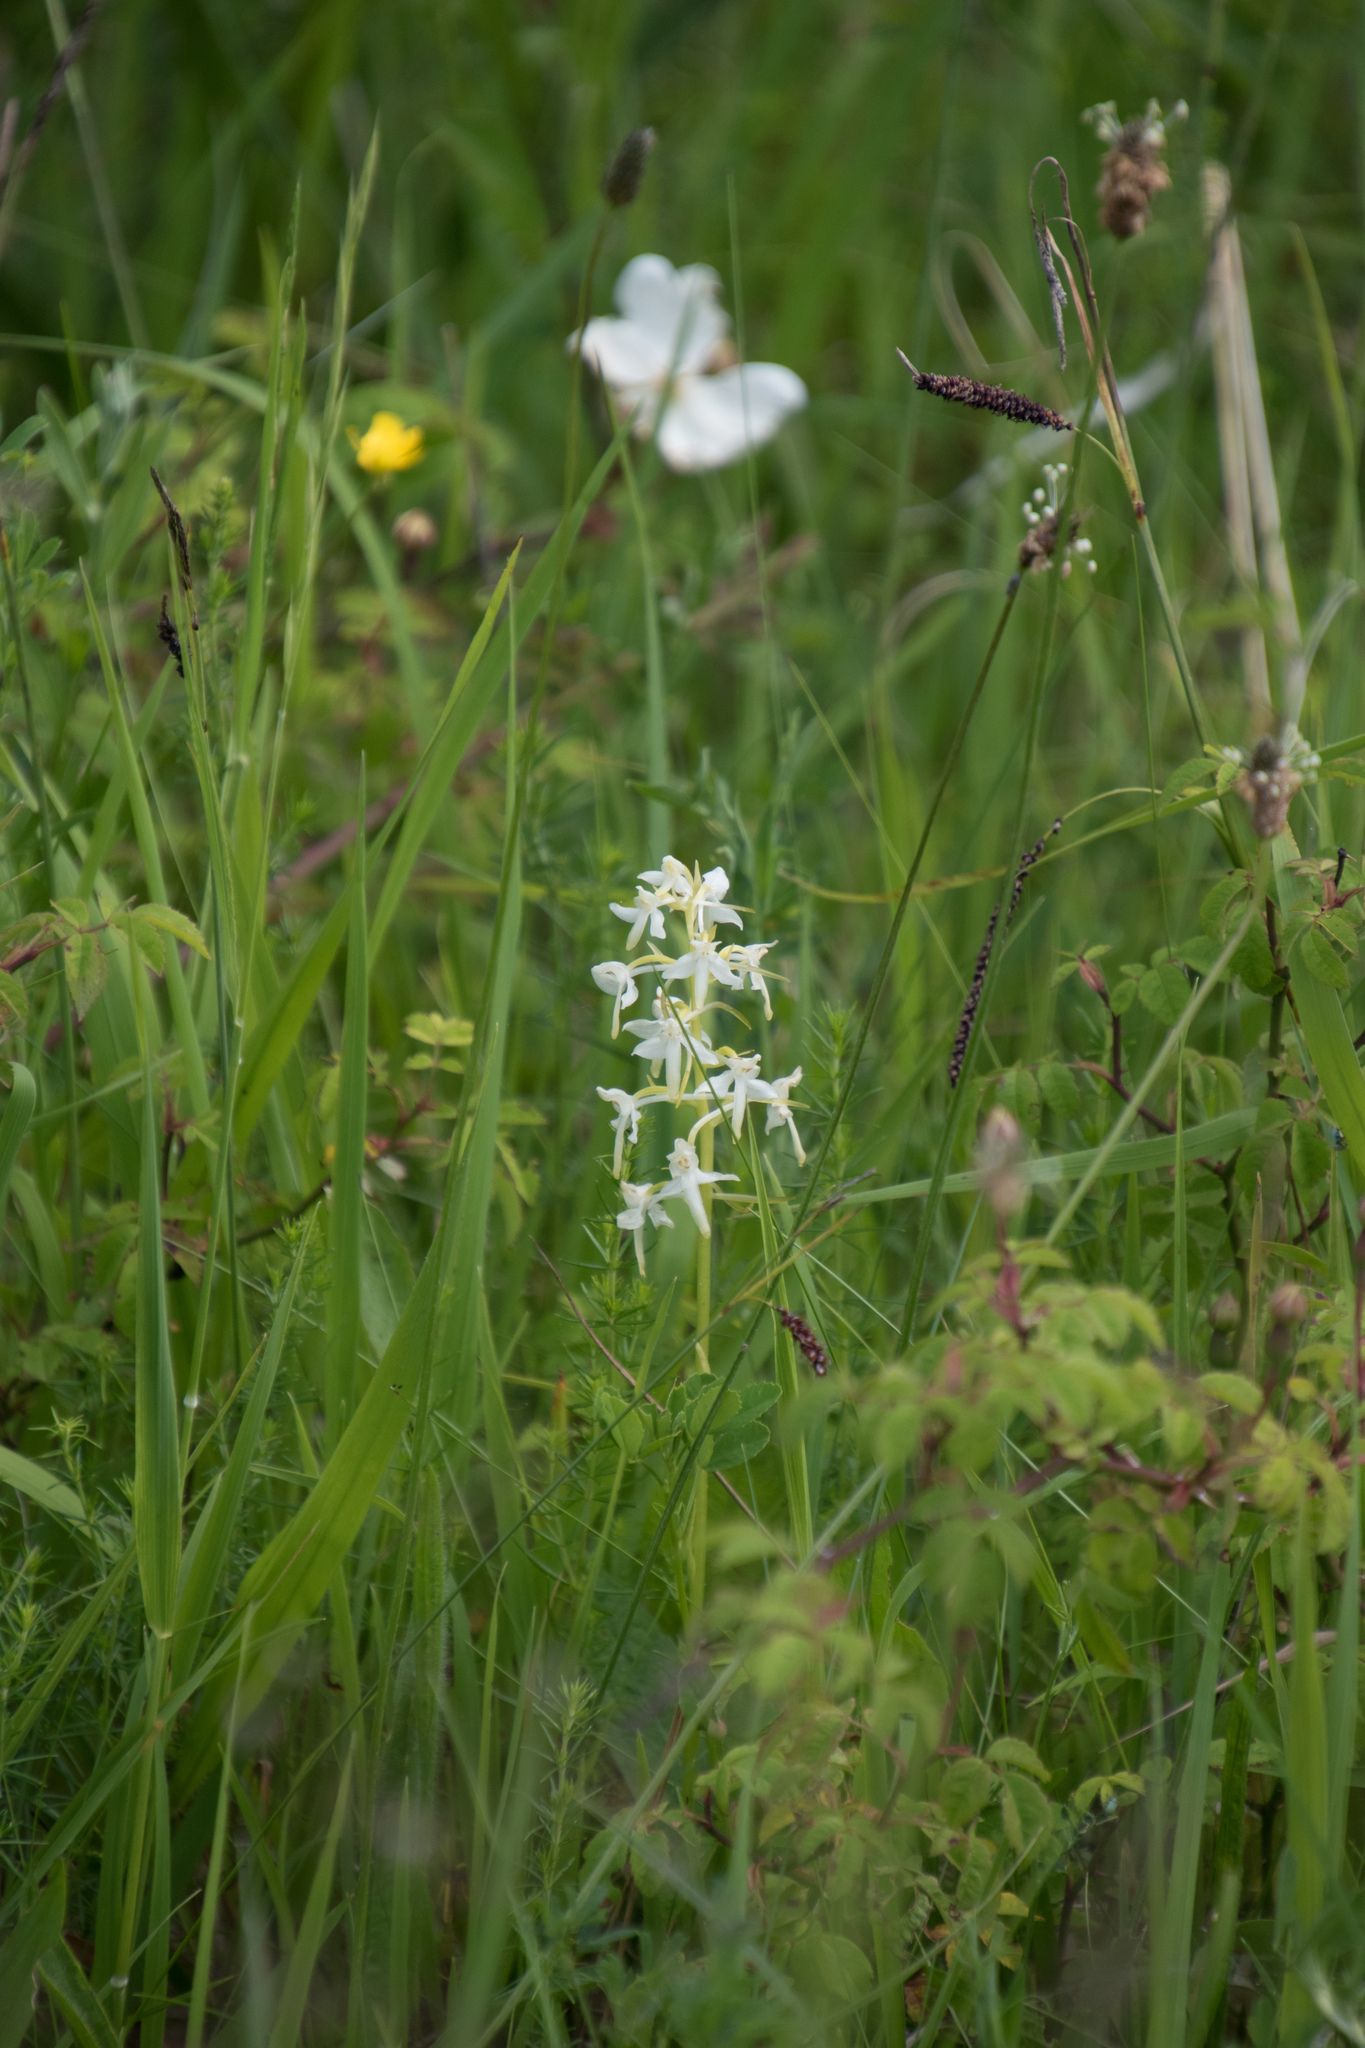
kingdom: Plantae
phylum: Tracheophyta
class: Liliopsida
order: Asparagales
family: Orchidaceae
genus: Platanthera
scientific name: Platanthera bifolia
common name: Lesser butterfly-orchid
